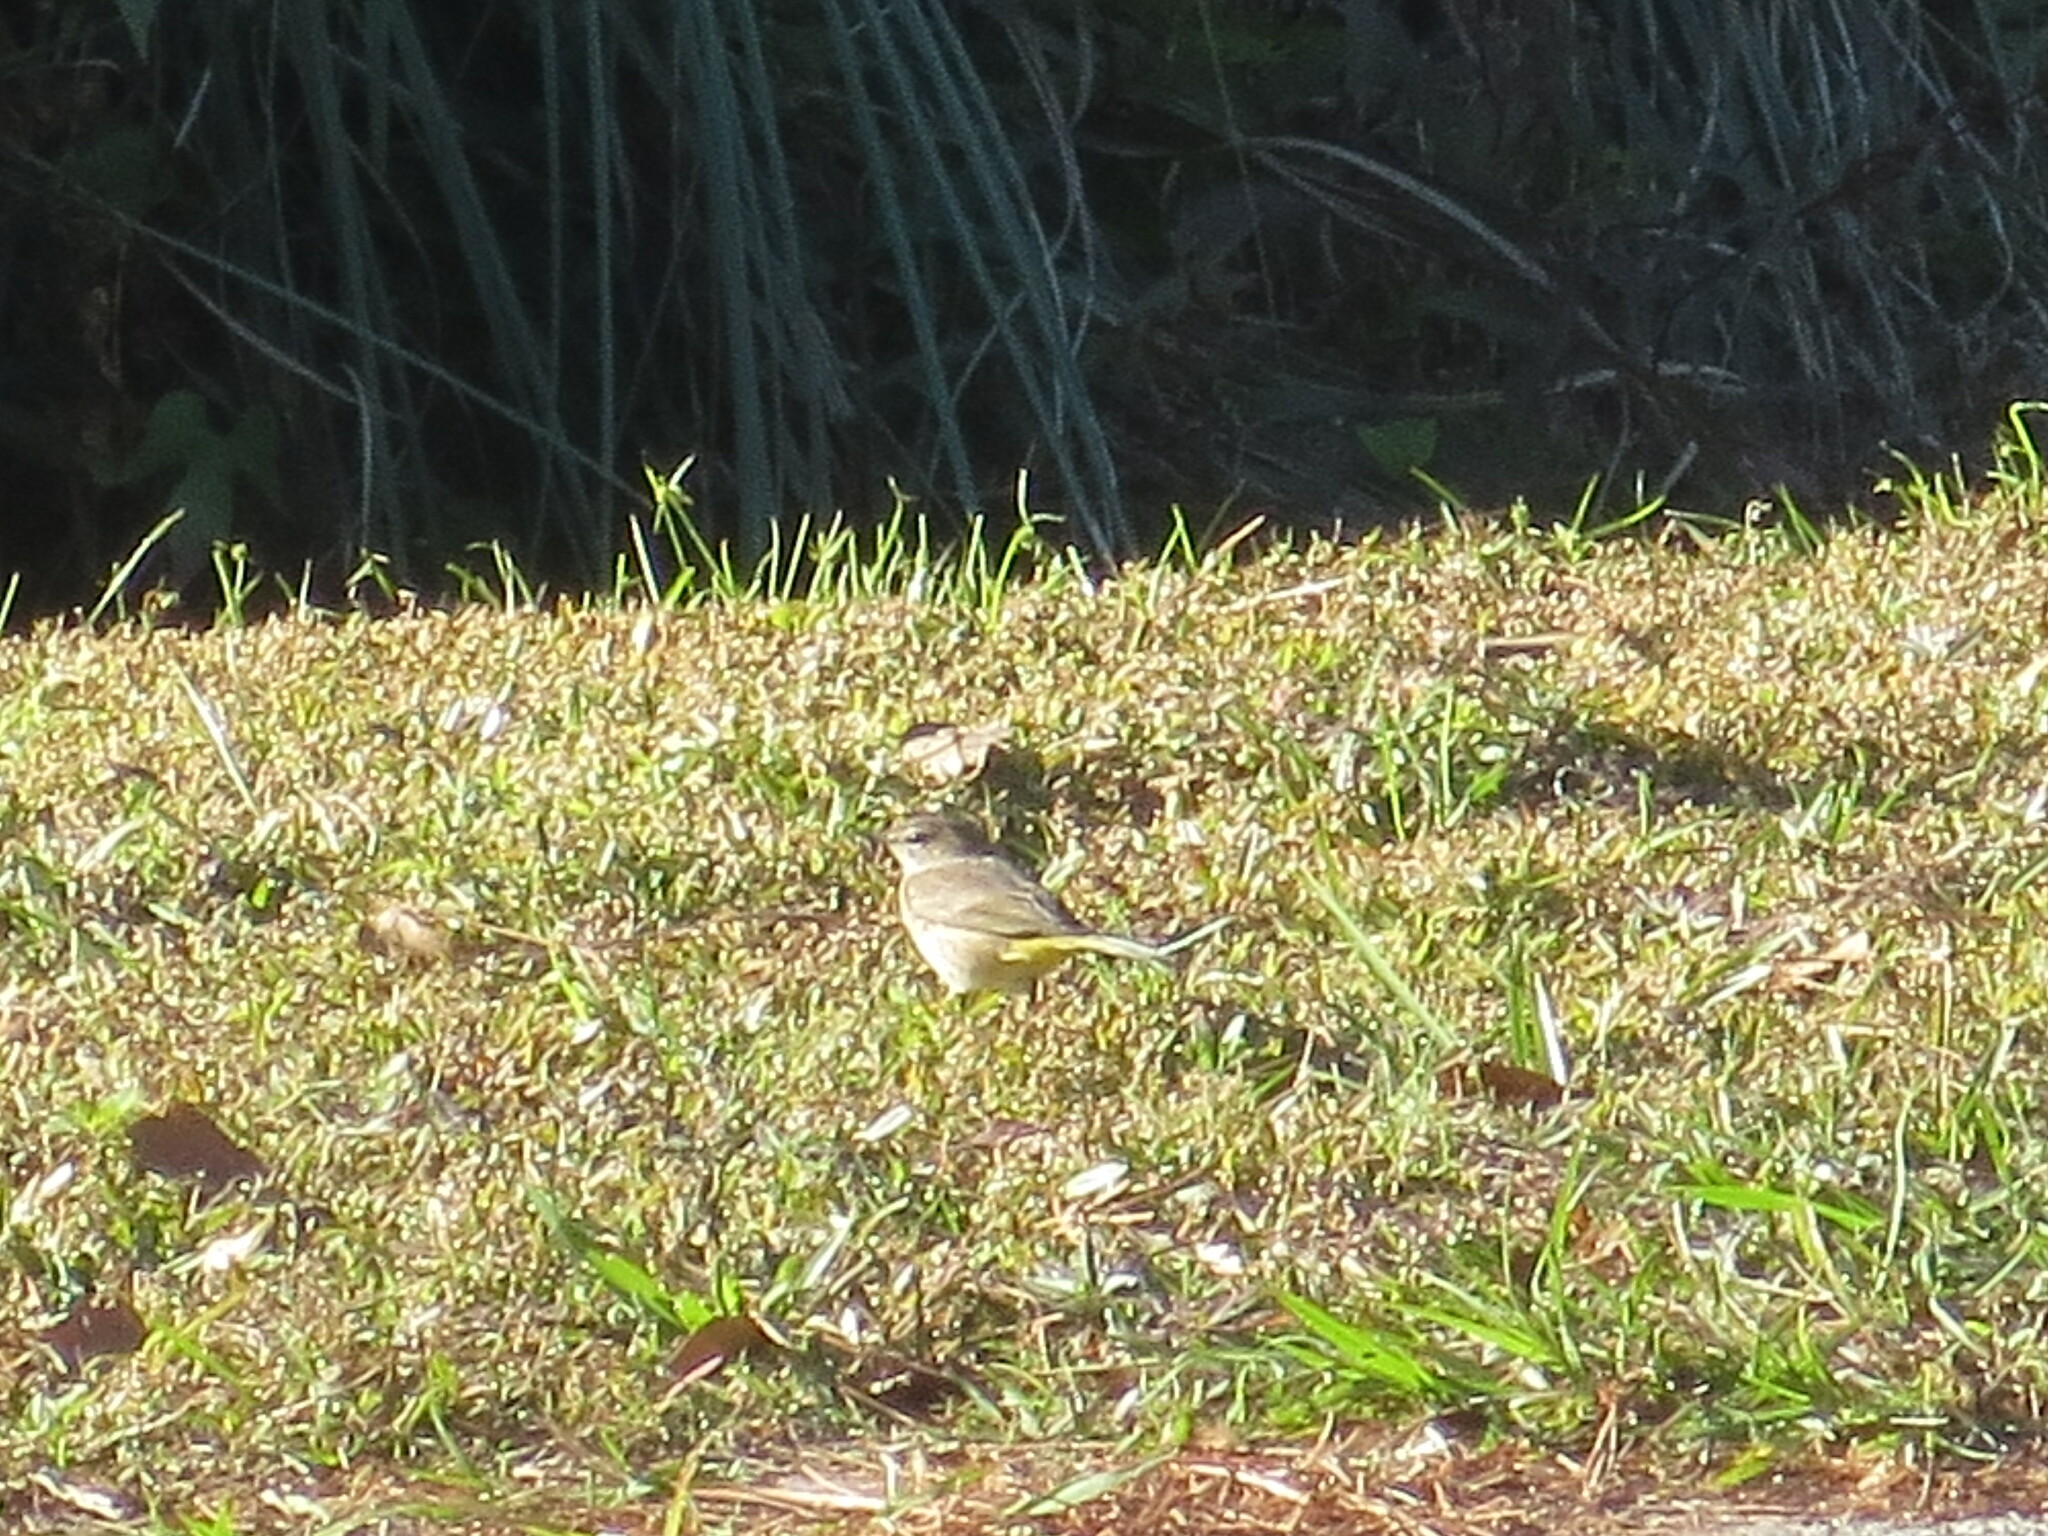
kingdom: Animalia
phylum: Chordata
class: Aves
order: Passeriformes
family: Parulidae
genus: Setophaga
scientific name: Setophaga palmarum
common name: Palm warbler
